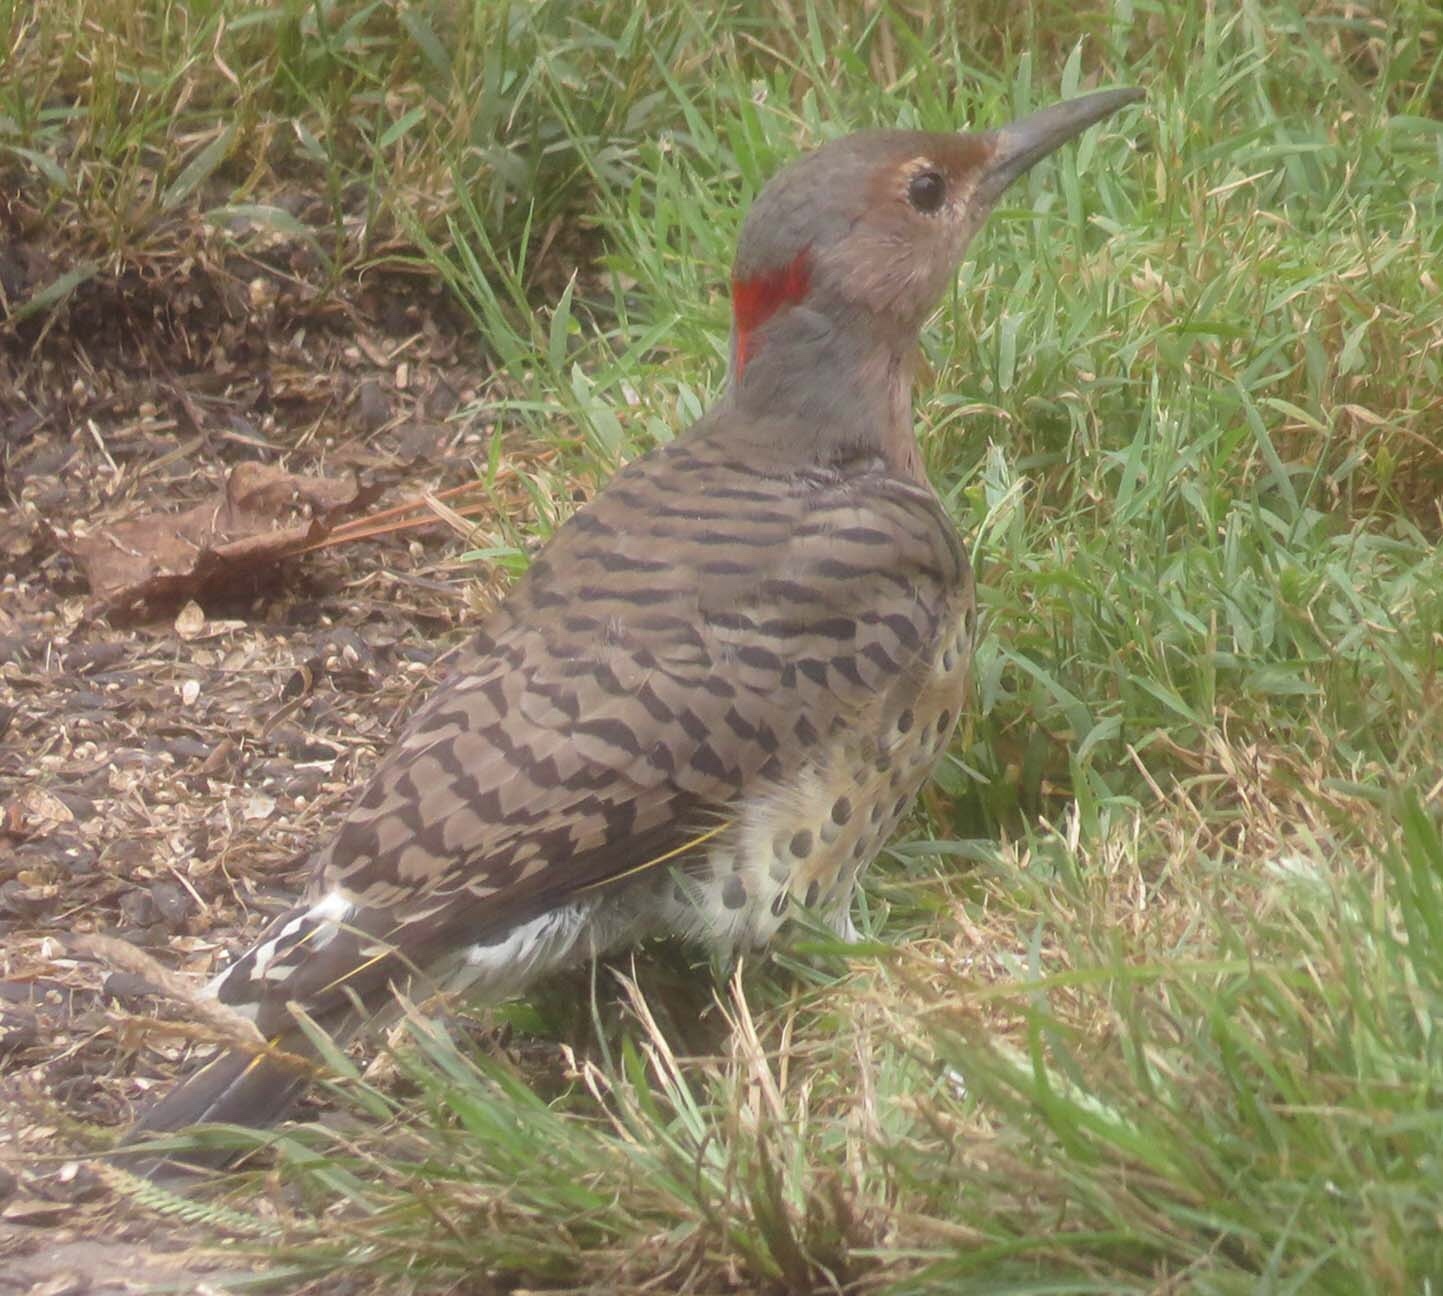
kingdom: Animalia
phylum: Chordata
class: Aves
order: Piciformes
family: Picidae
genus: Colaptes
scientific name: Colaptes auratus
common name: Northern flicker
